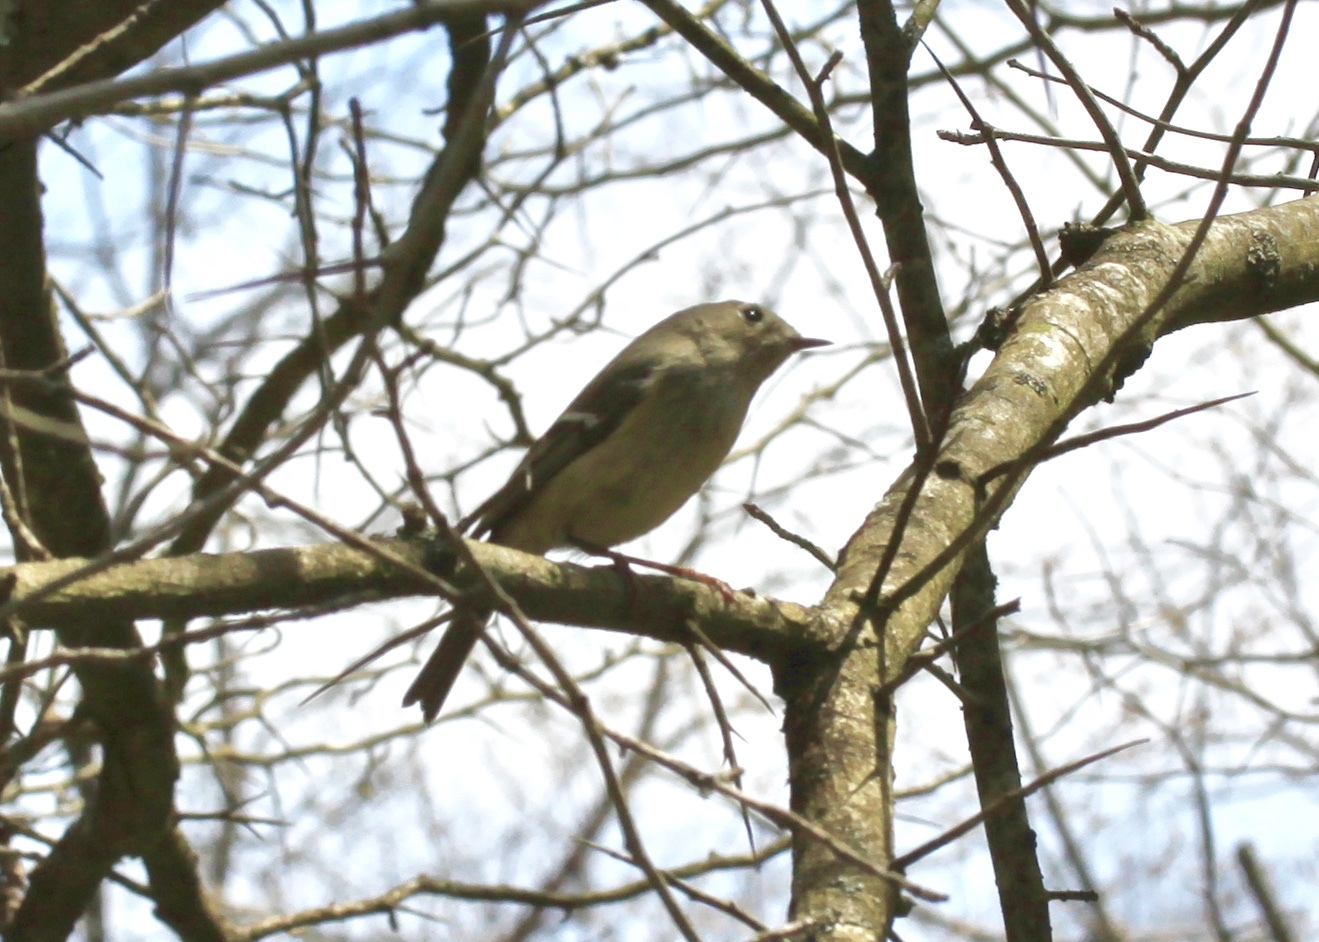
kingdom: Animalia
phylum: Chordata
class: Aves
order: Passeriformes
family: Regulidae
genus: Regulus
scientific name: Regulus calendula
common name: Ruby-crowned kinglet
